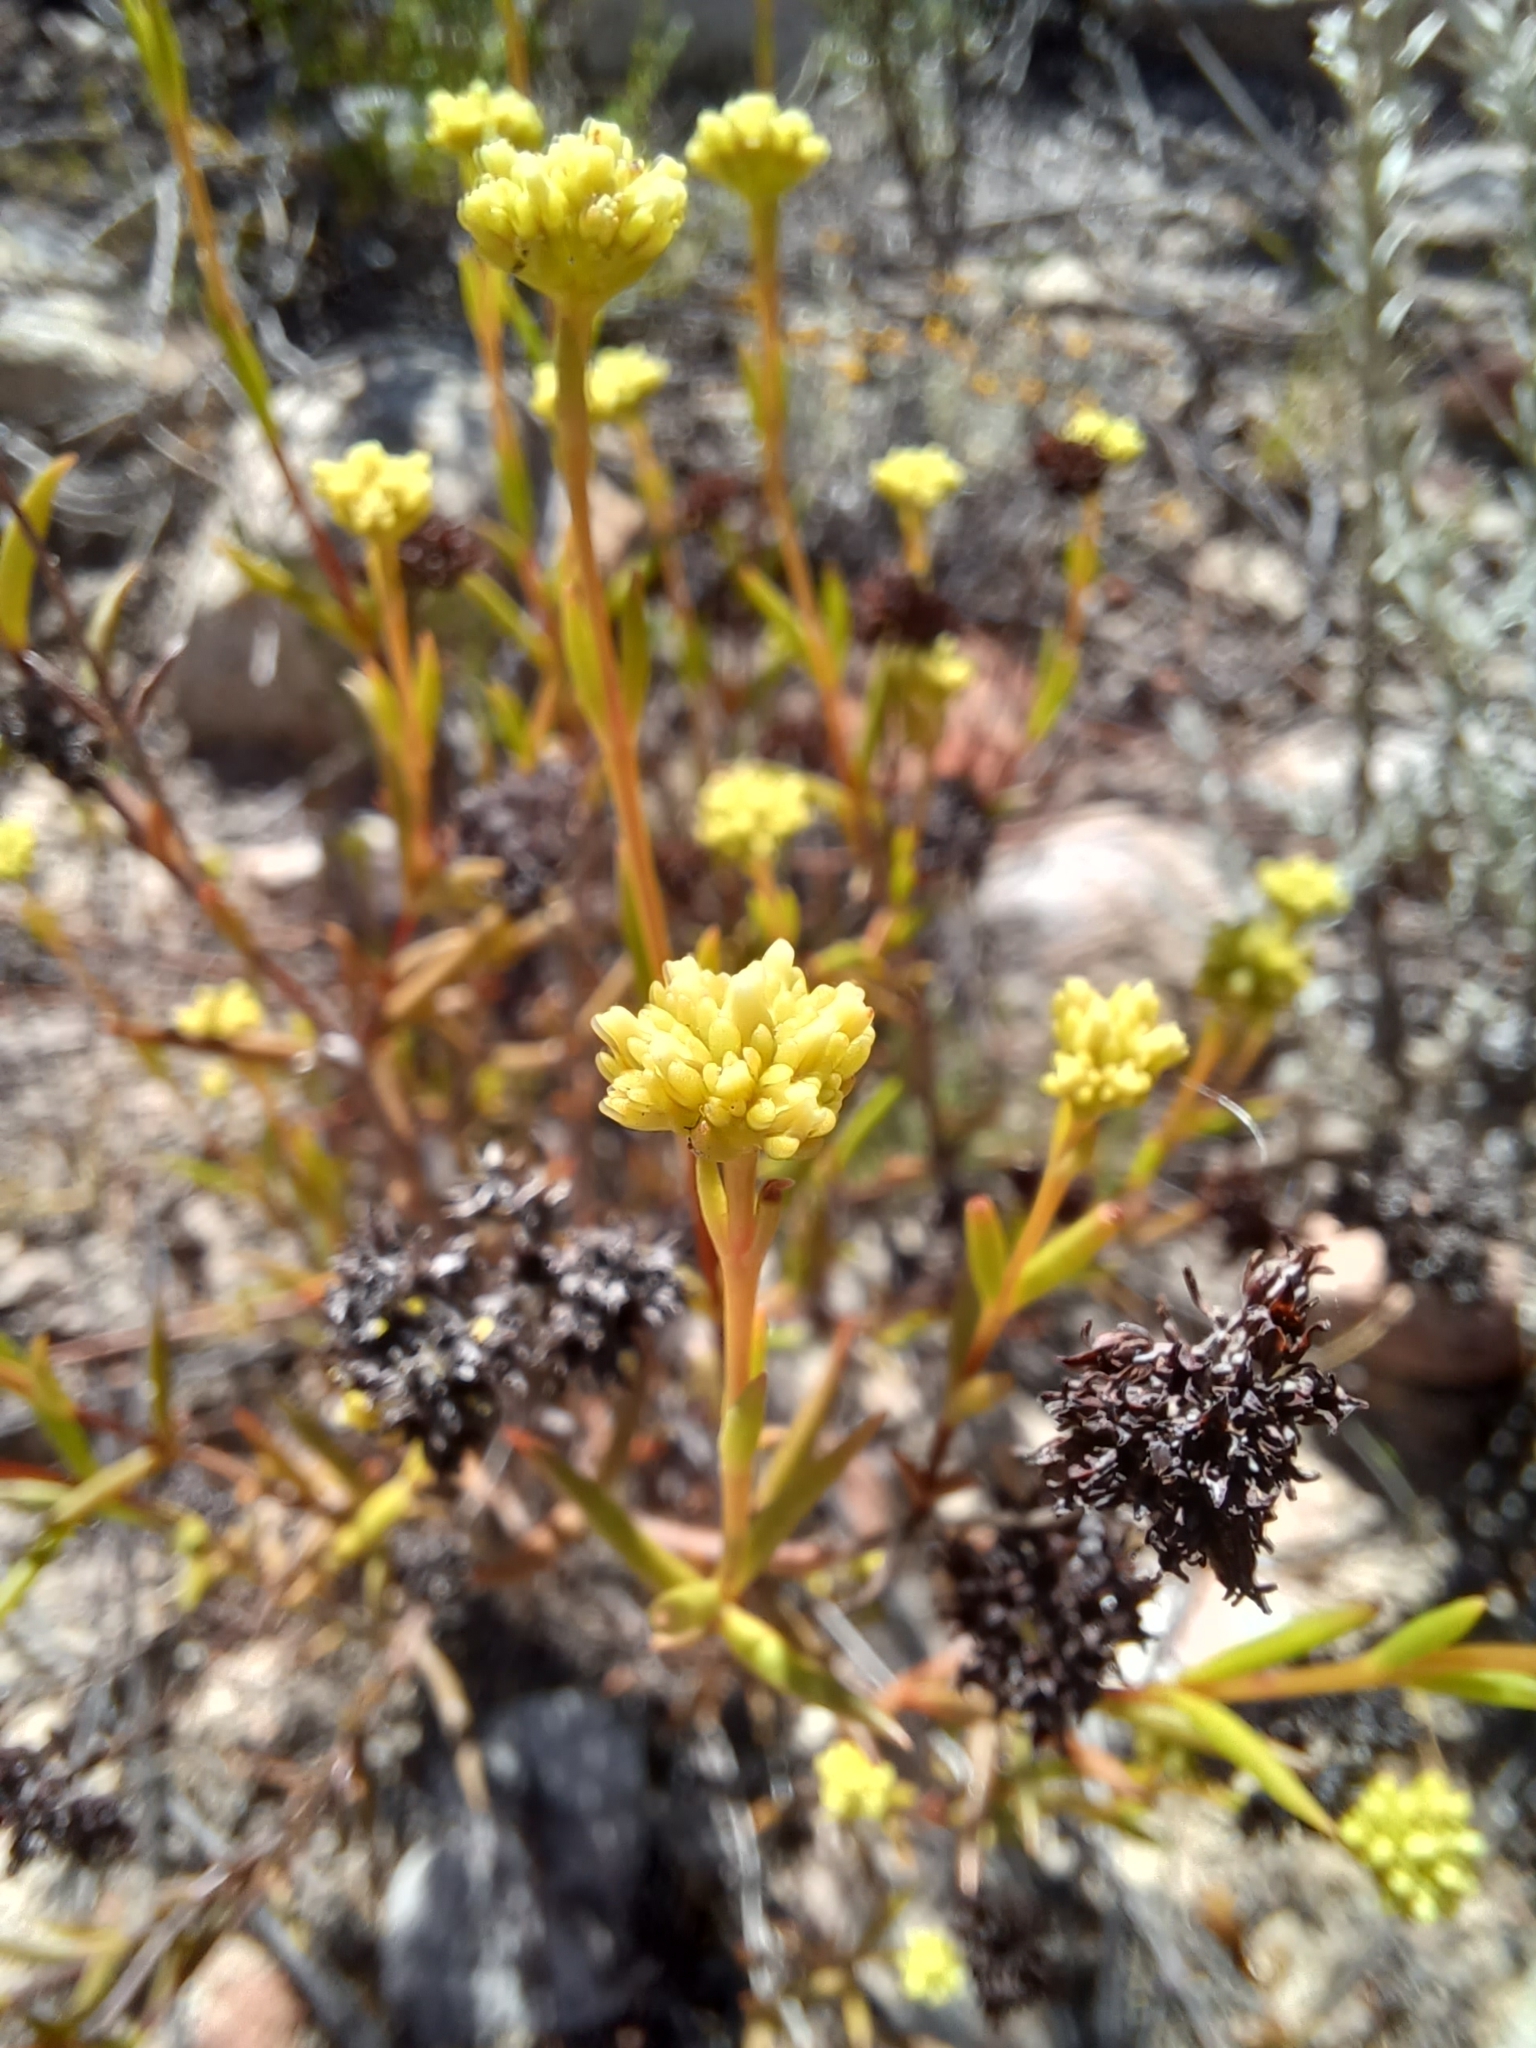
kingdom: Plantae
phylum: Tracheophyta
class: Magnoliopsida
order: Saxifragales
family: Crassulaceae
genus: Crassula
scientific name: Crassula subulata
